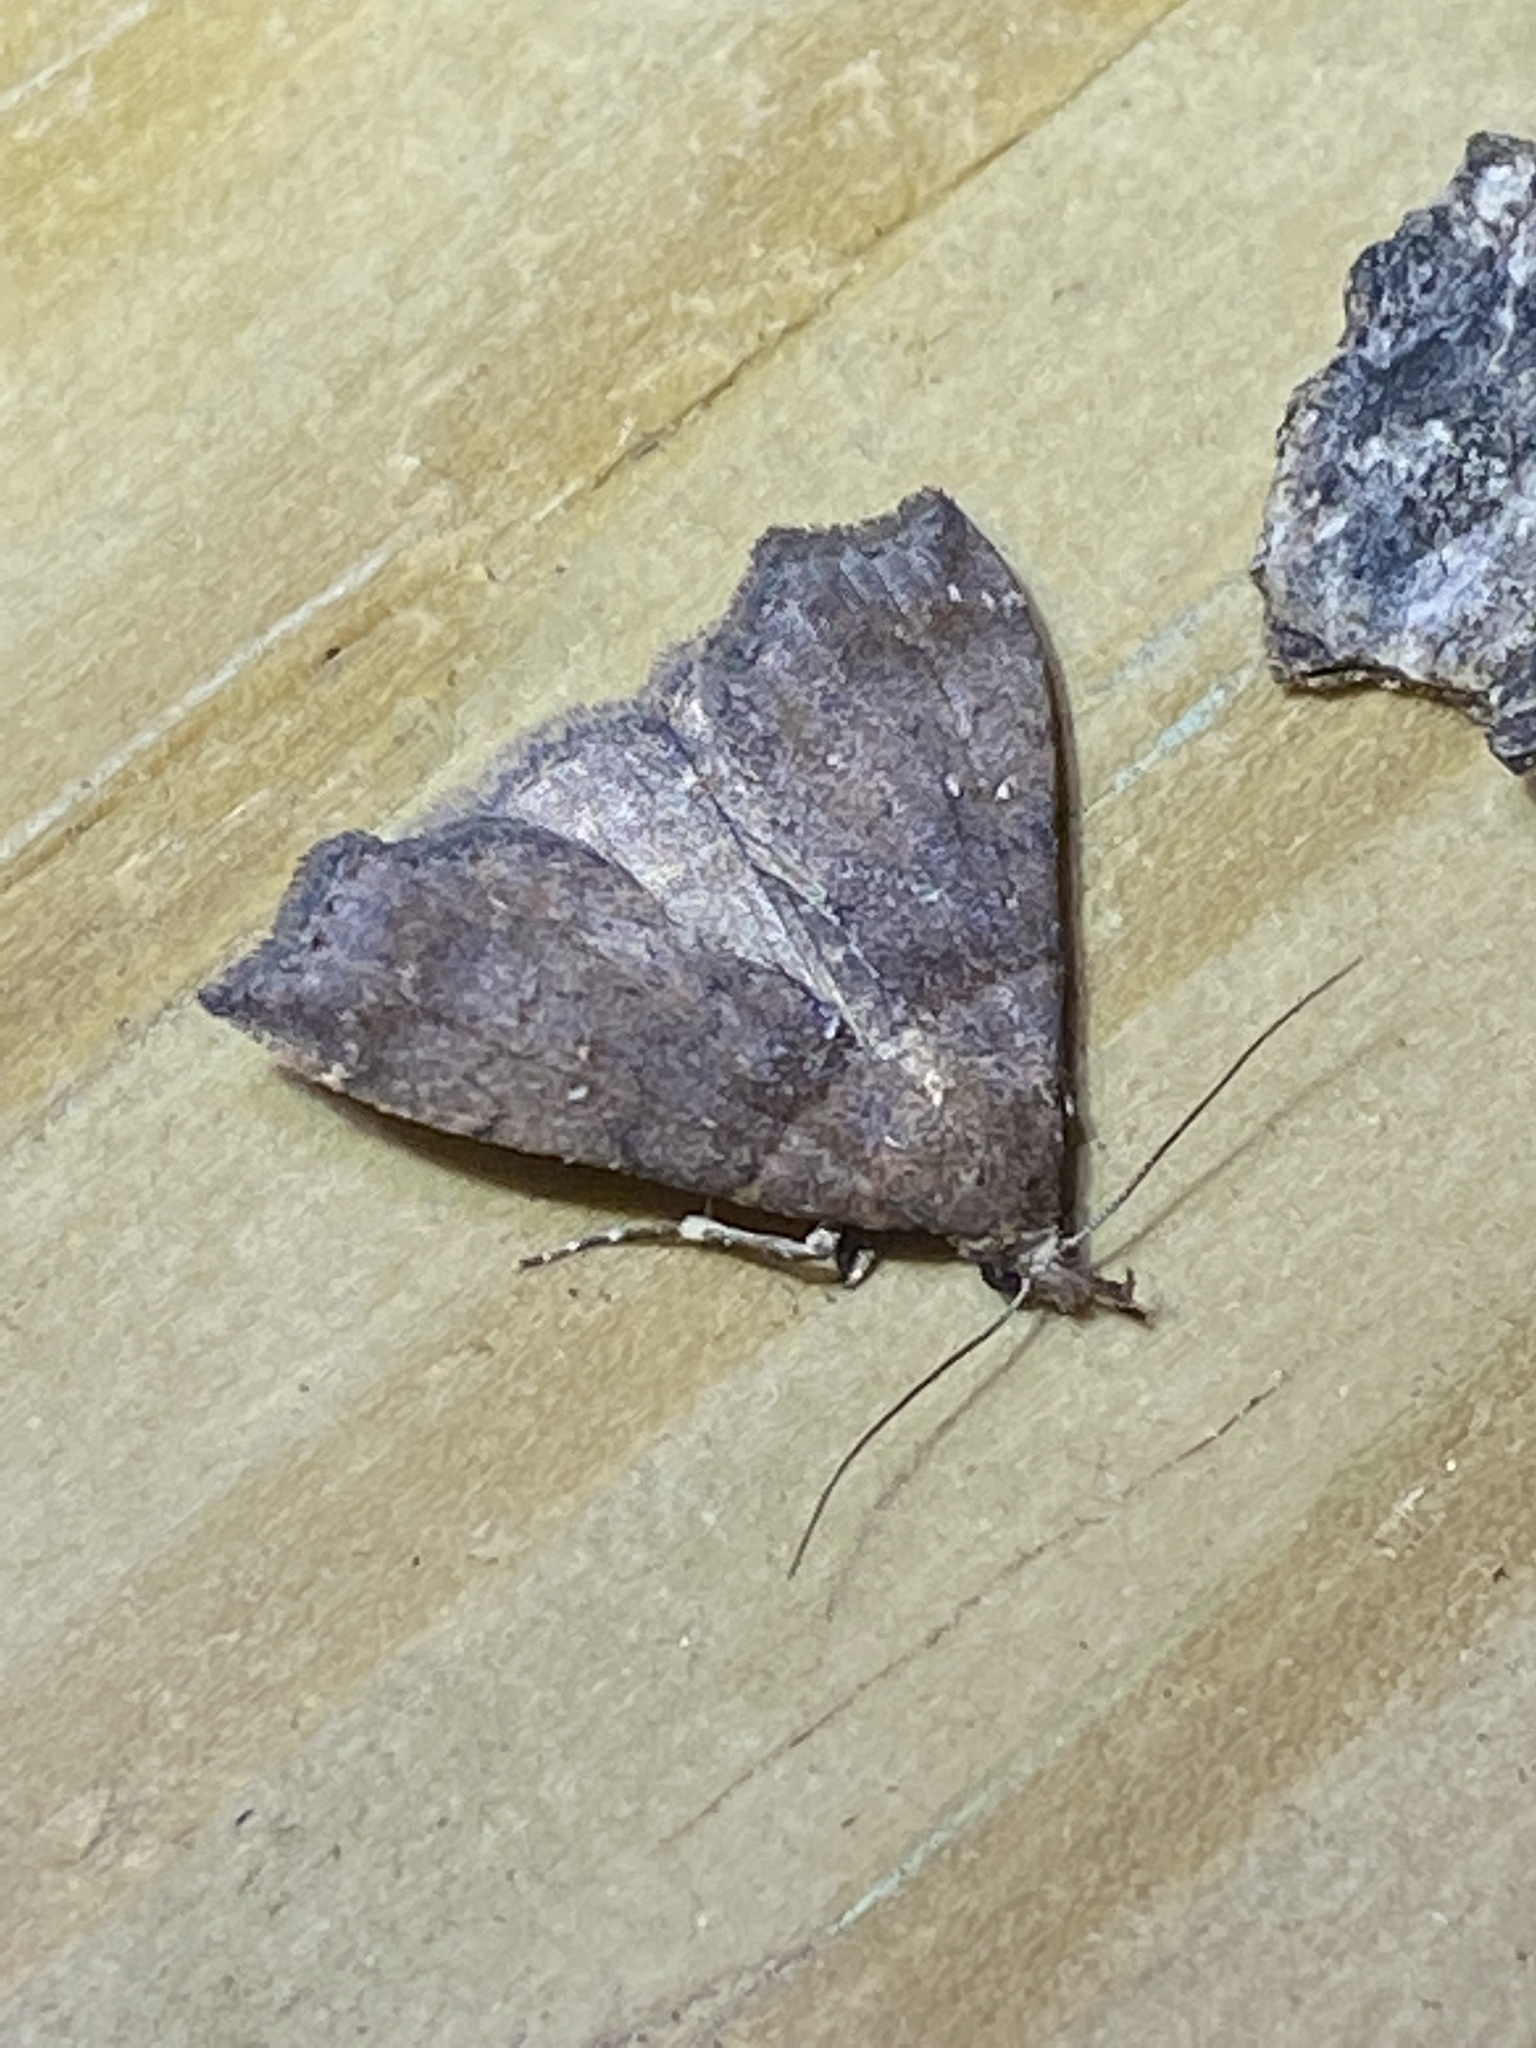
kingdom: Animalia
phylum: Arthropoda
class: Insecta
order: Lepidoptera
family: Erebidae
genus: Lascoria
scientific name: Lascoria ambigualis
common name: Ambiguous moth
